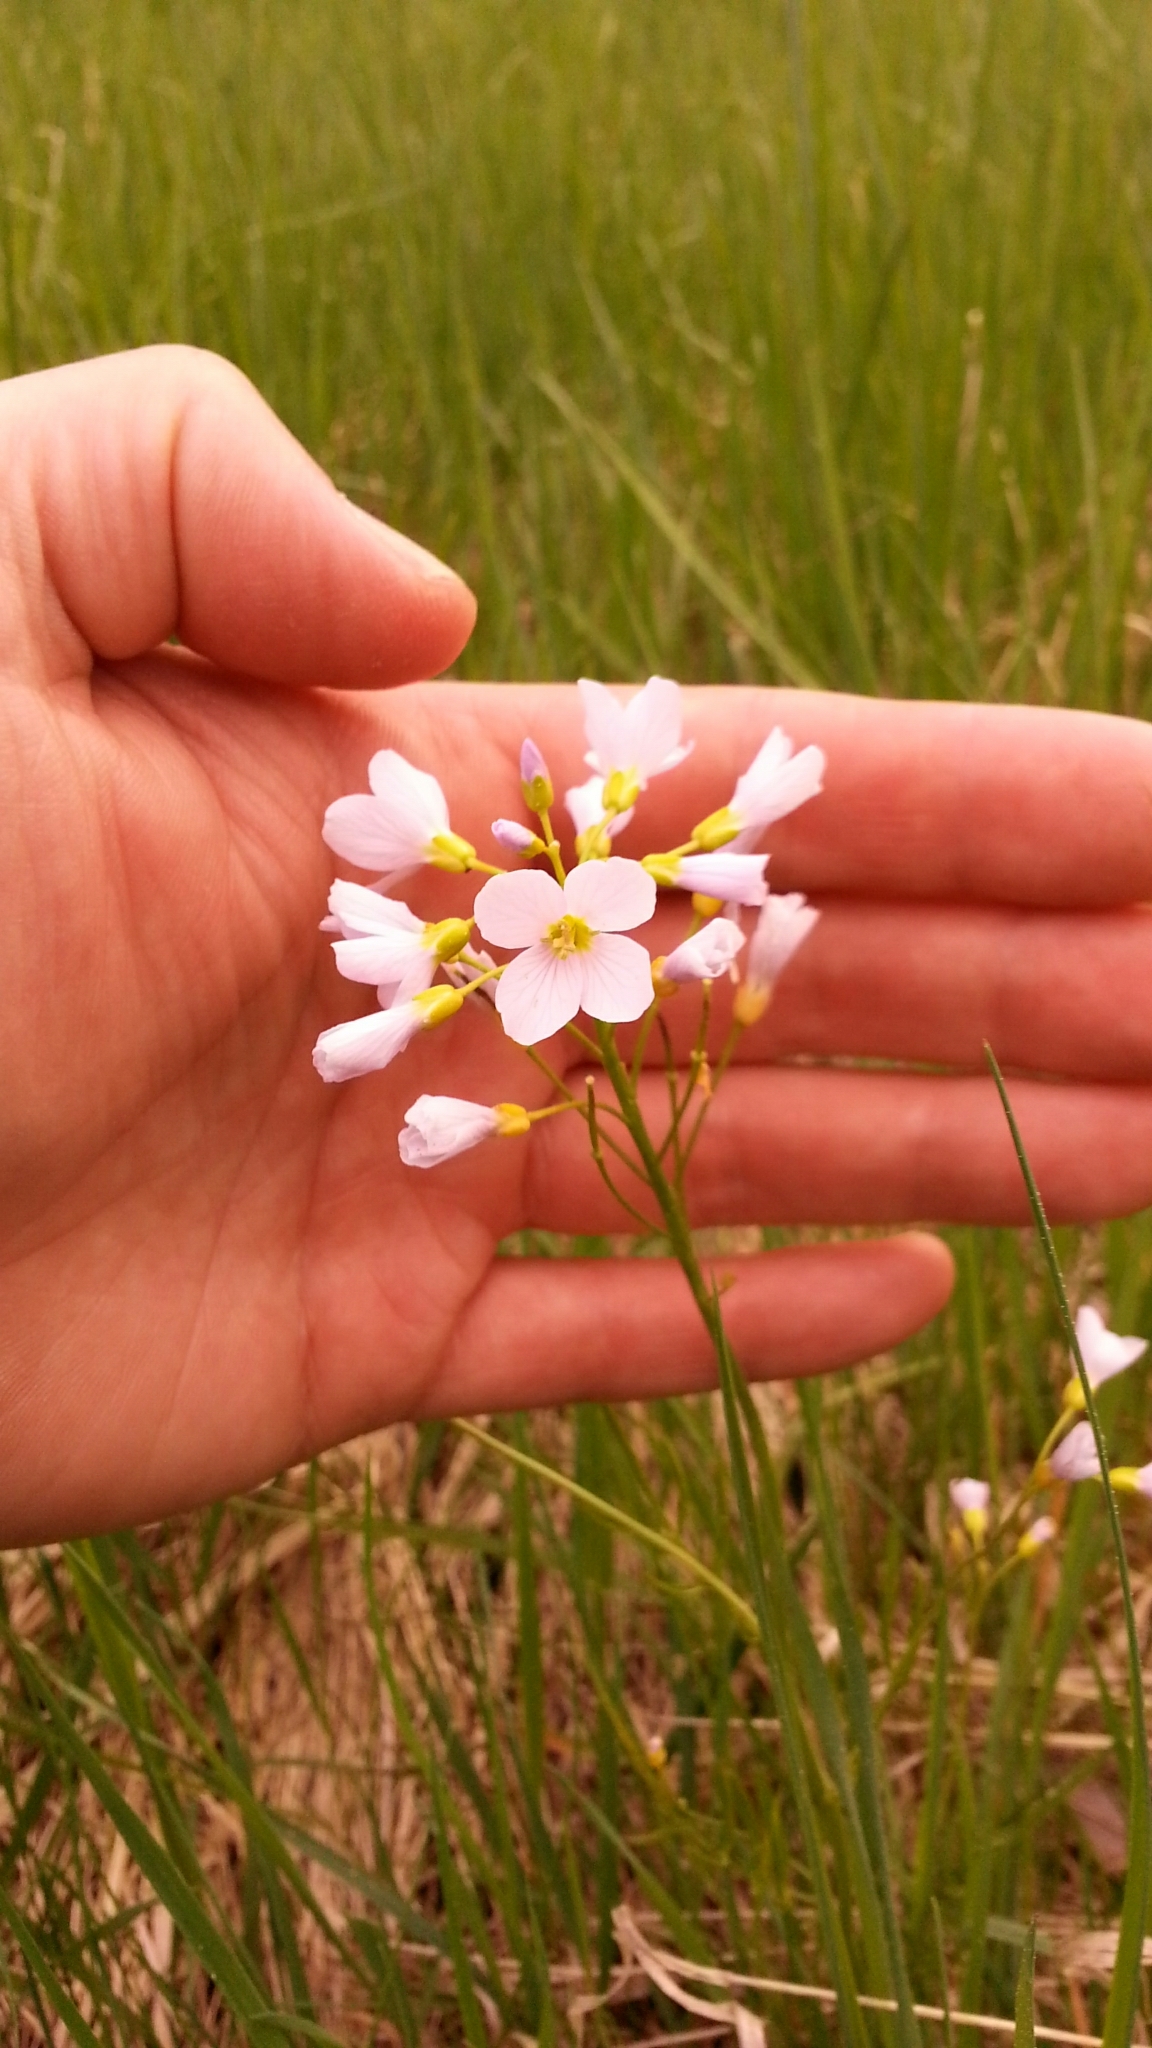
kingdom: Plantae
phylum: Tracheophyta
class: Magnoliopsida
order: Brassicales
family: Brassicaceae
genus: Cardamine
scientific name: Cardamine pratensis
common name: Cuckoo flower
